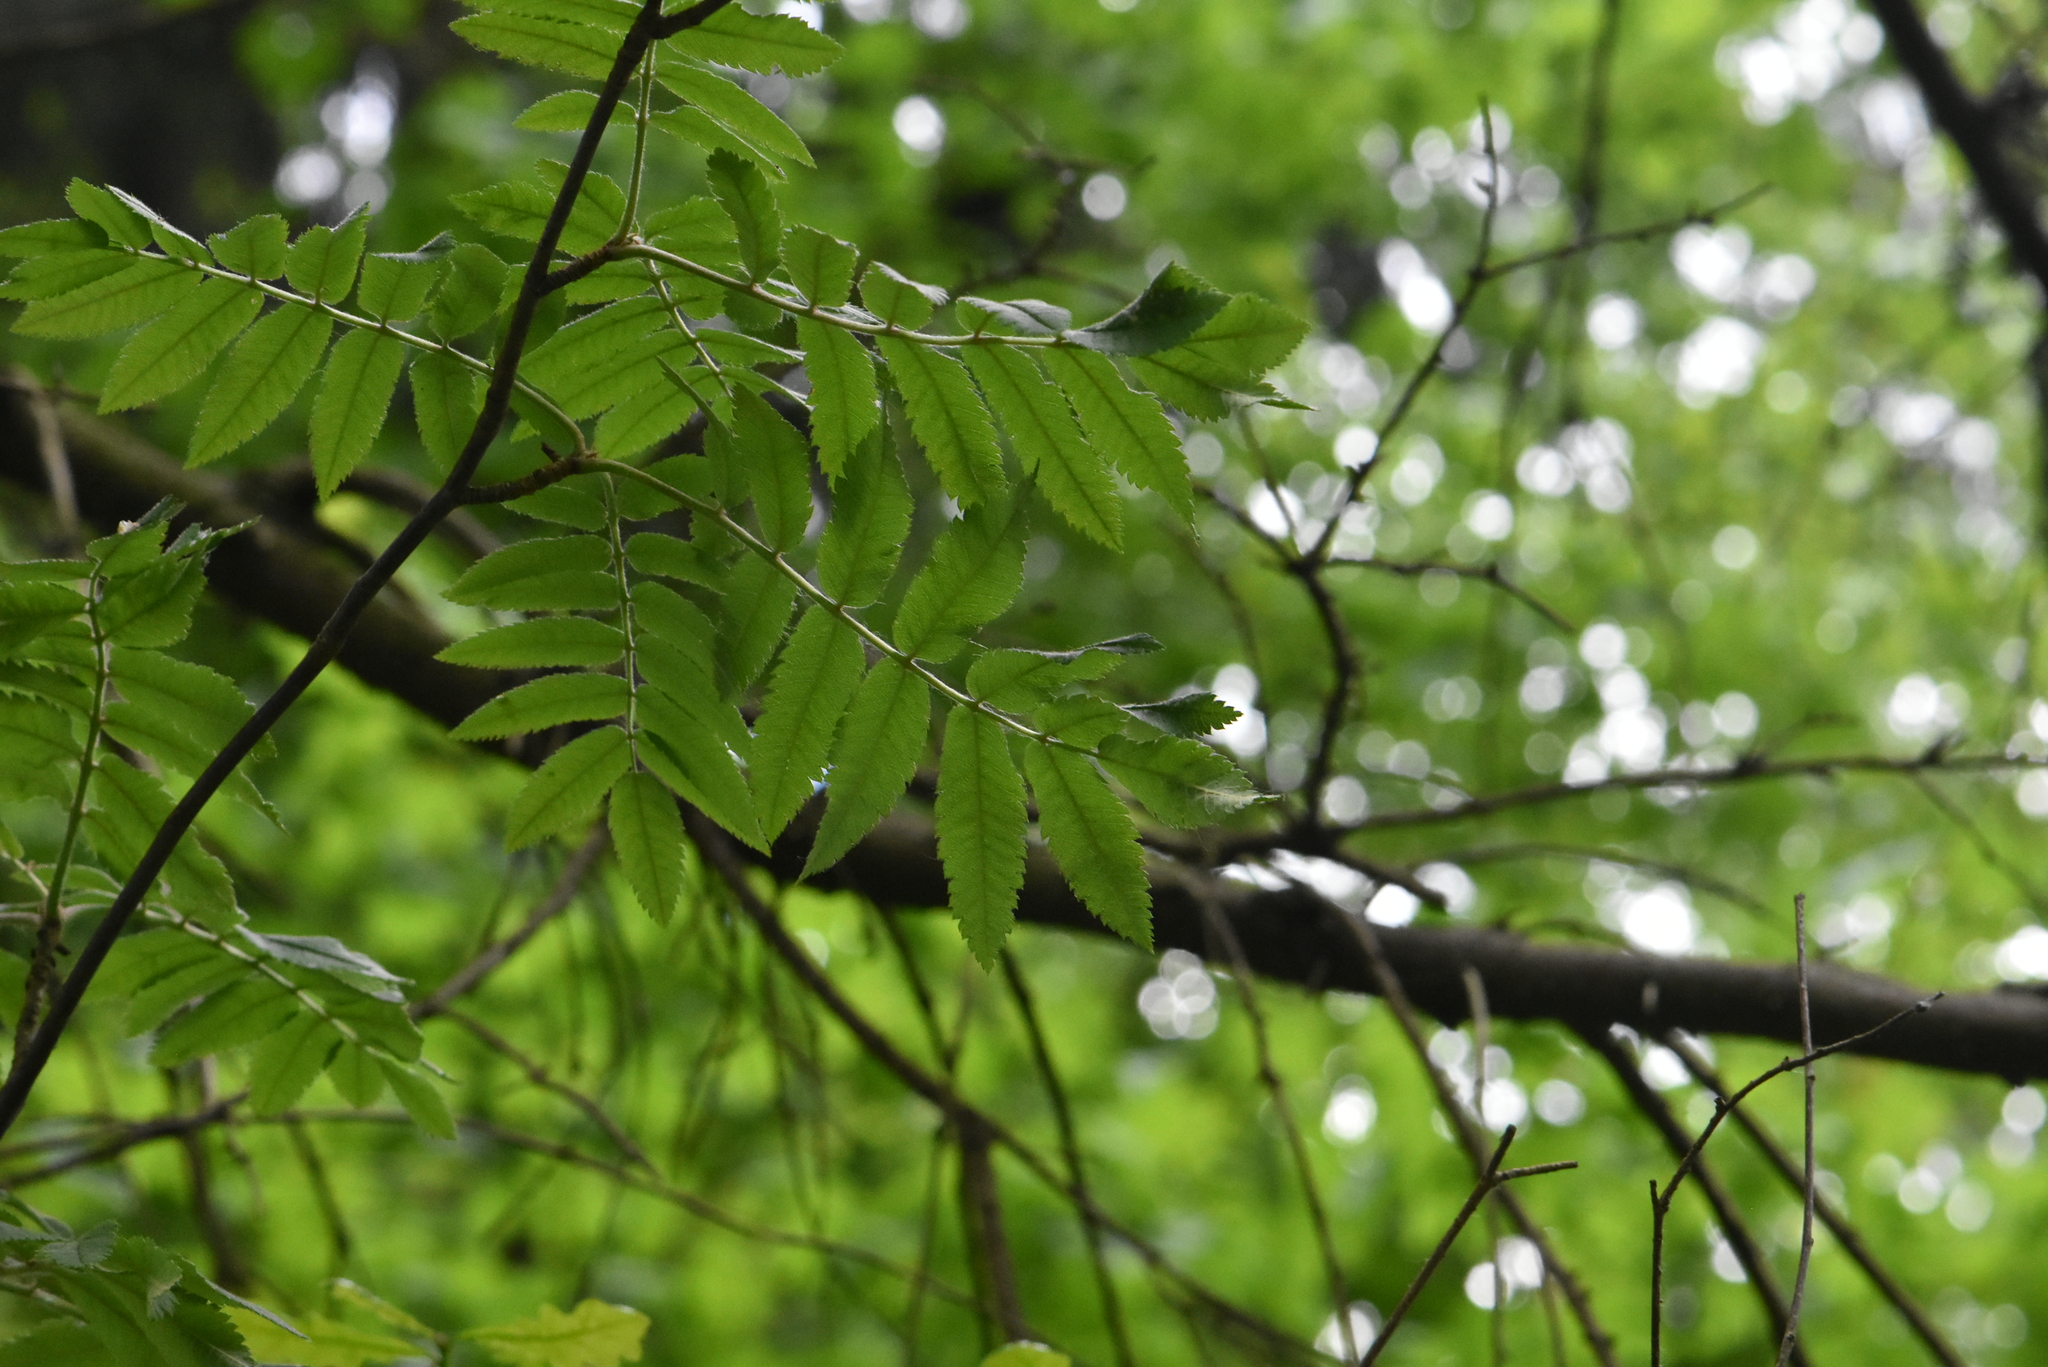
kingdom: Plantae
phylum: Tracheophyta
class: Magnoliopsida
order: Rosales
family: Rosaceae
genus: Sorbus
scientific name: Sorbus aucuparia
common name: Rowan
